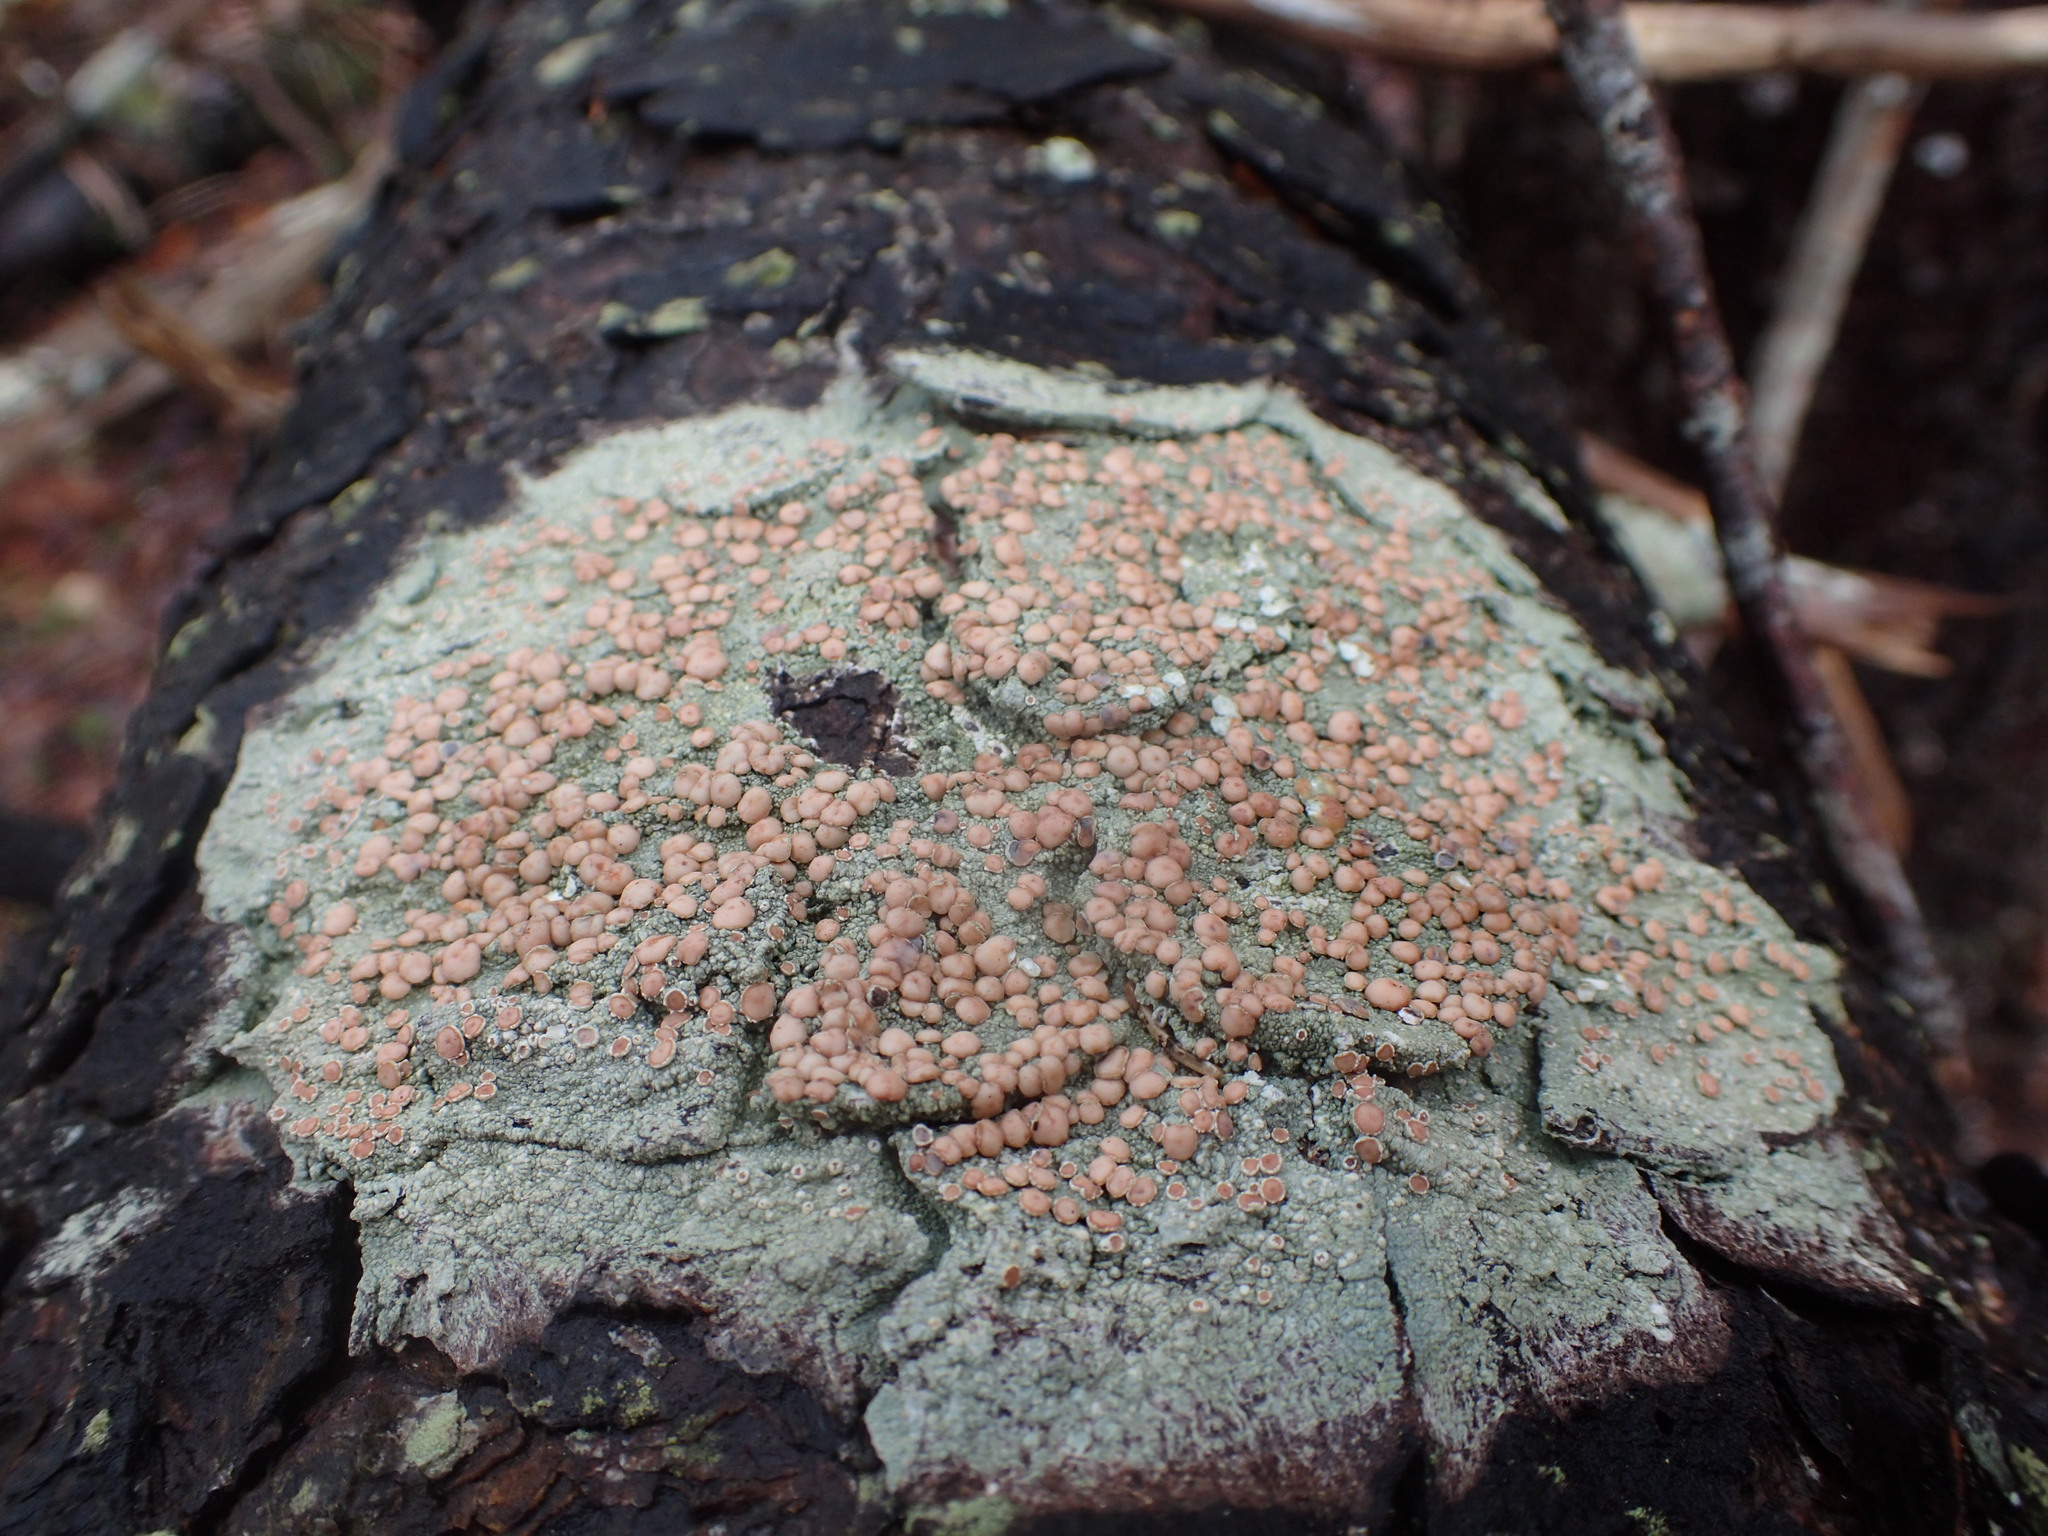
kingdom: Fungi
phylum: Ascomycota
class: Lecanoromycetes
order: Pertusariales
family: Icmadophilaceae
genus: Icmadophila
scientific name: Icmadophila ericetorum
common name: Candy lichen
